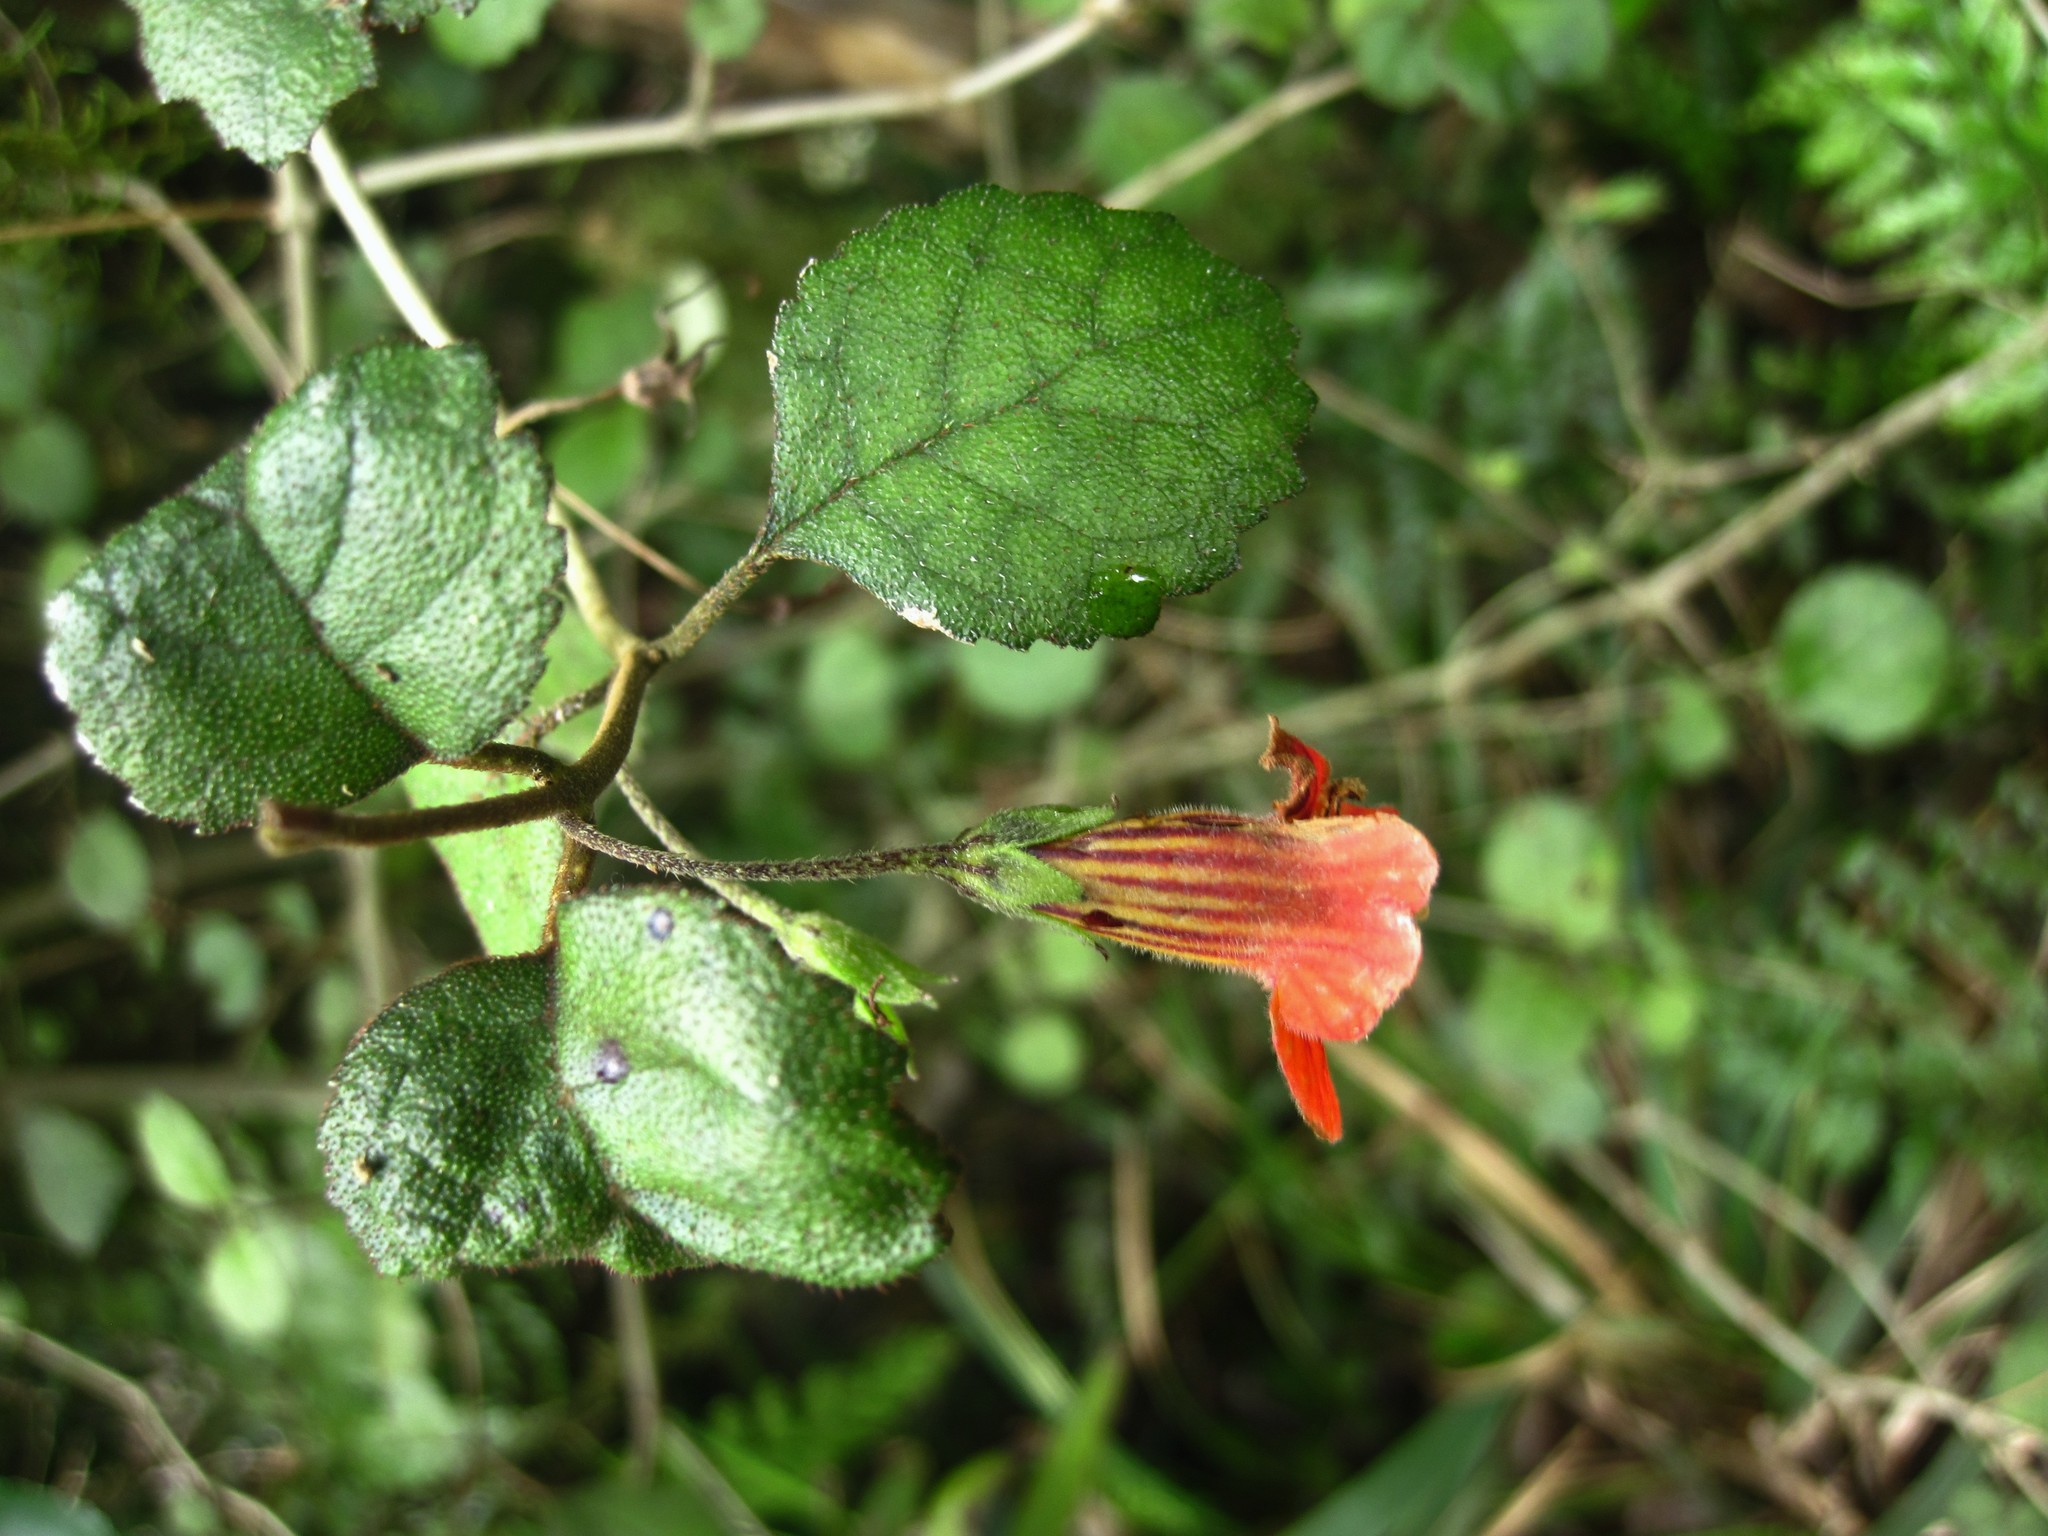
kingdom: Plantae
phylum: Tracheophyta
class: Magnoliopsida
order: Lamiales
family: Gesneriaceae
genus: Rhabdothamnus
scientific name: Rhabdothamnus solandri
